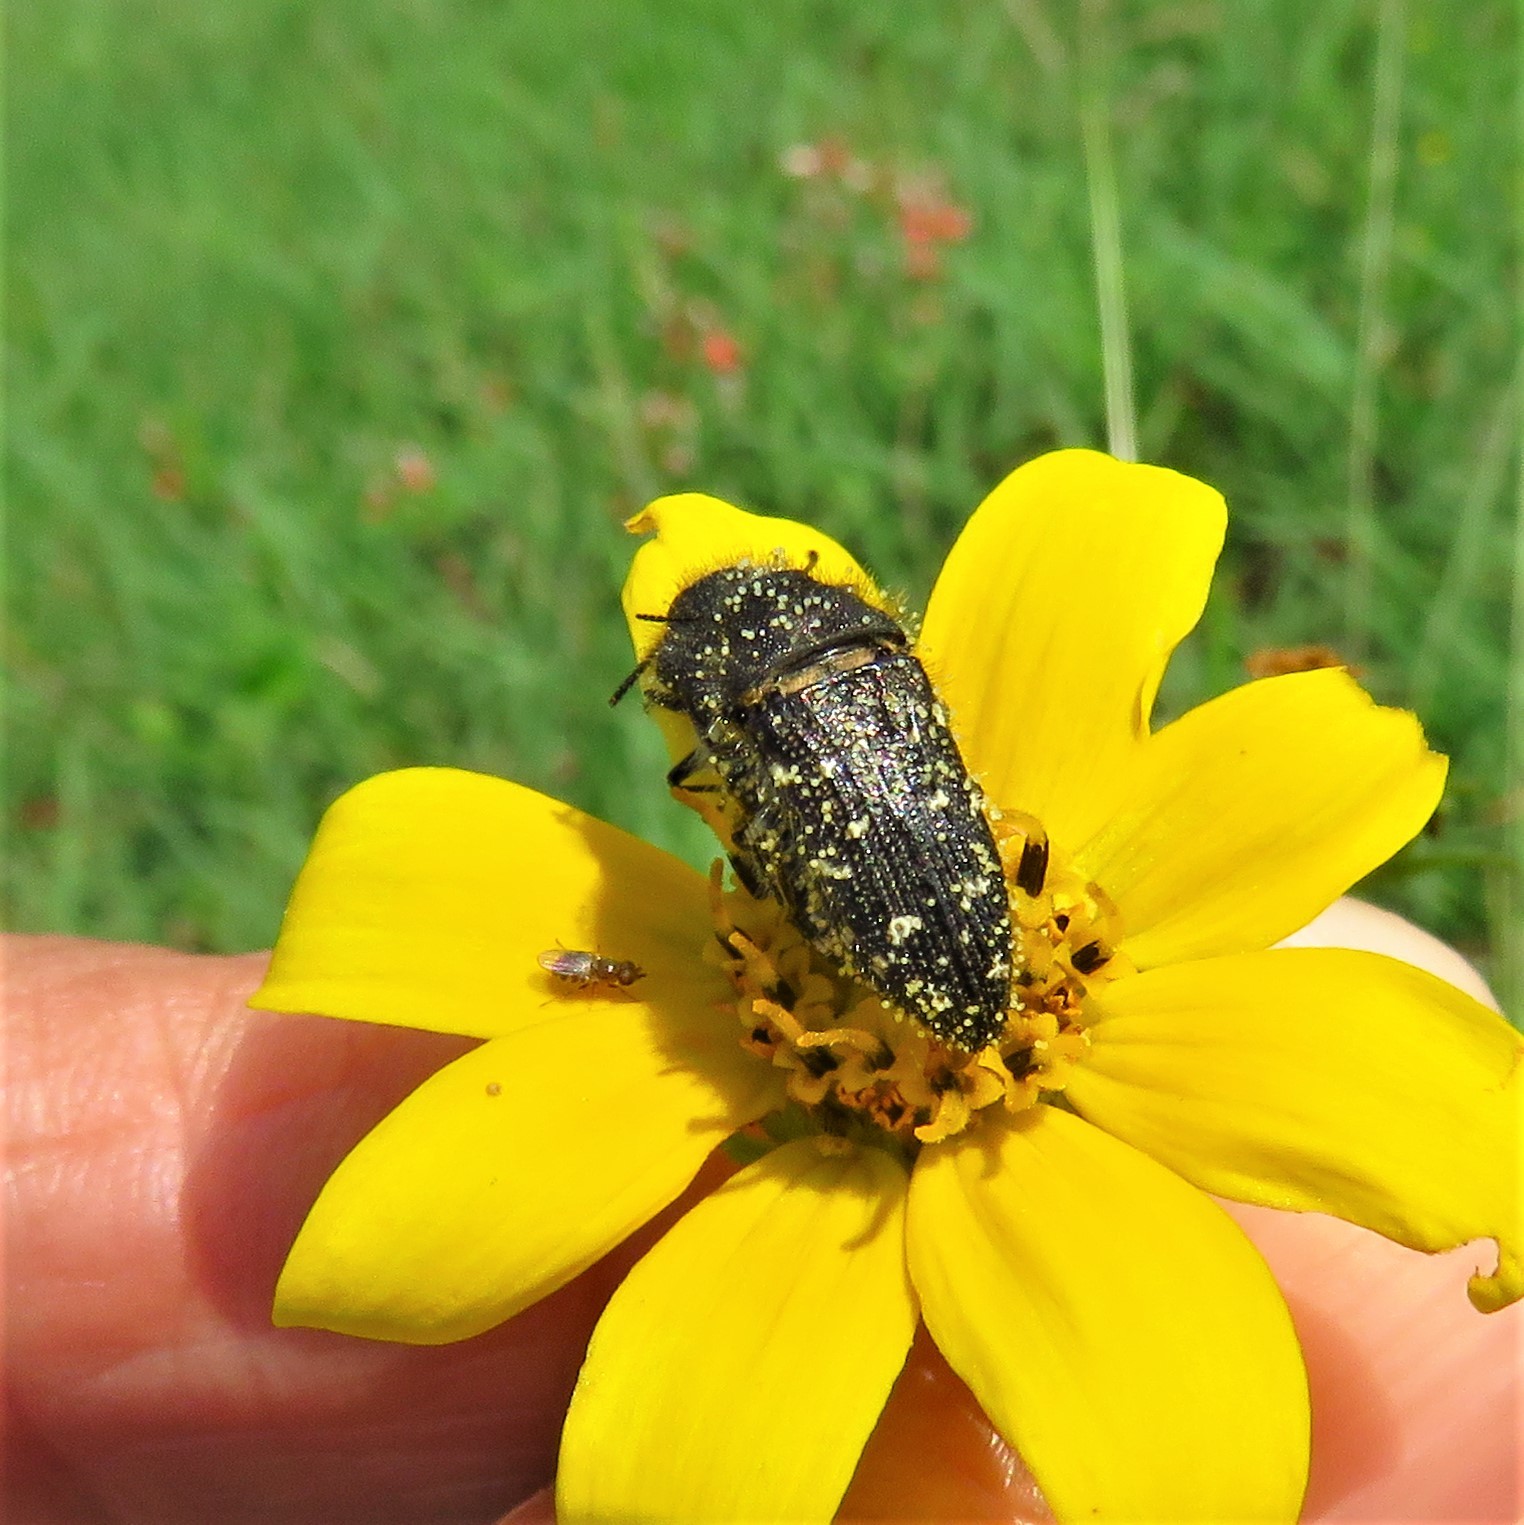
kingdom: Animalia
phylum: Arthropoda
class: Insecta
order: Coleoptera
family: Buprestidae
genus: Acmaeodera
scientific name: Acmaeodera ornatoides
